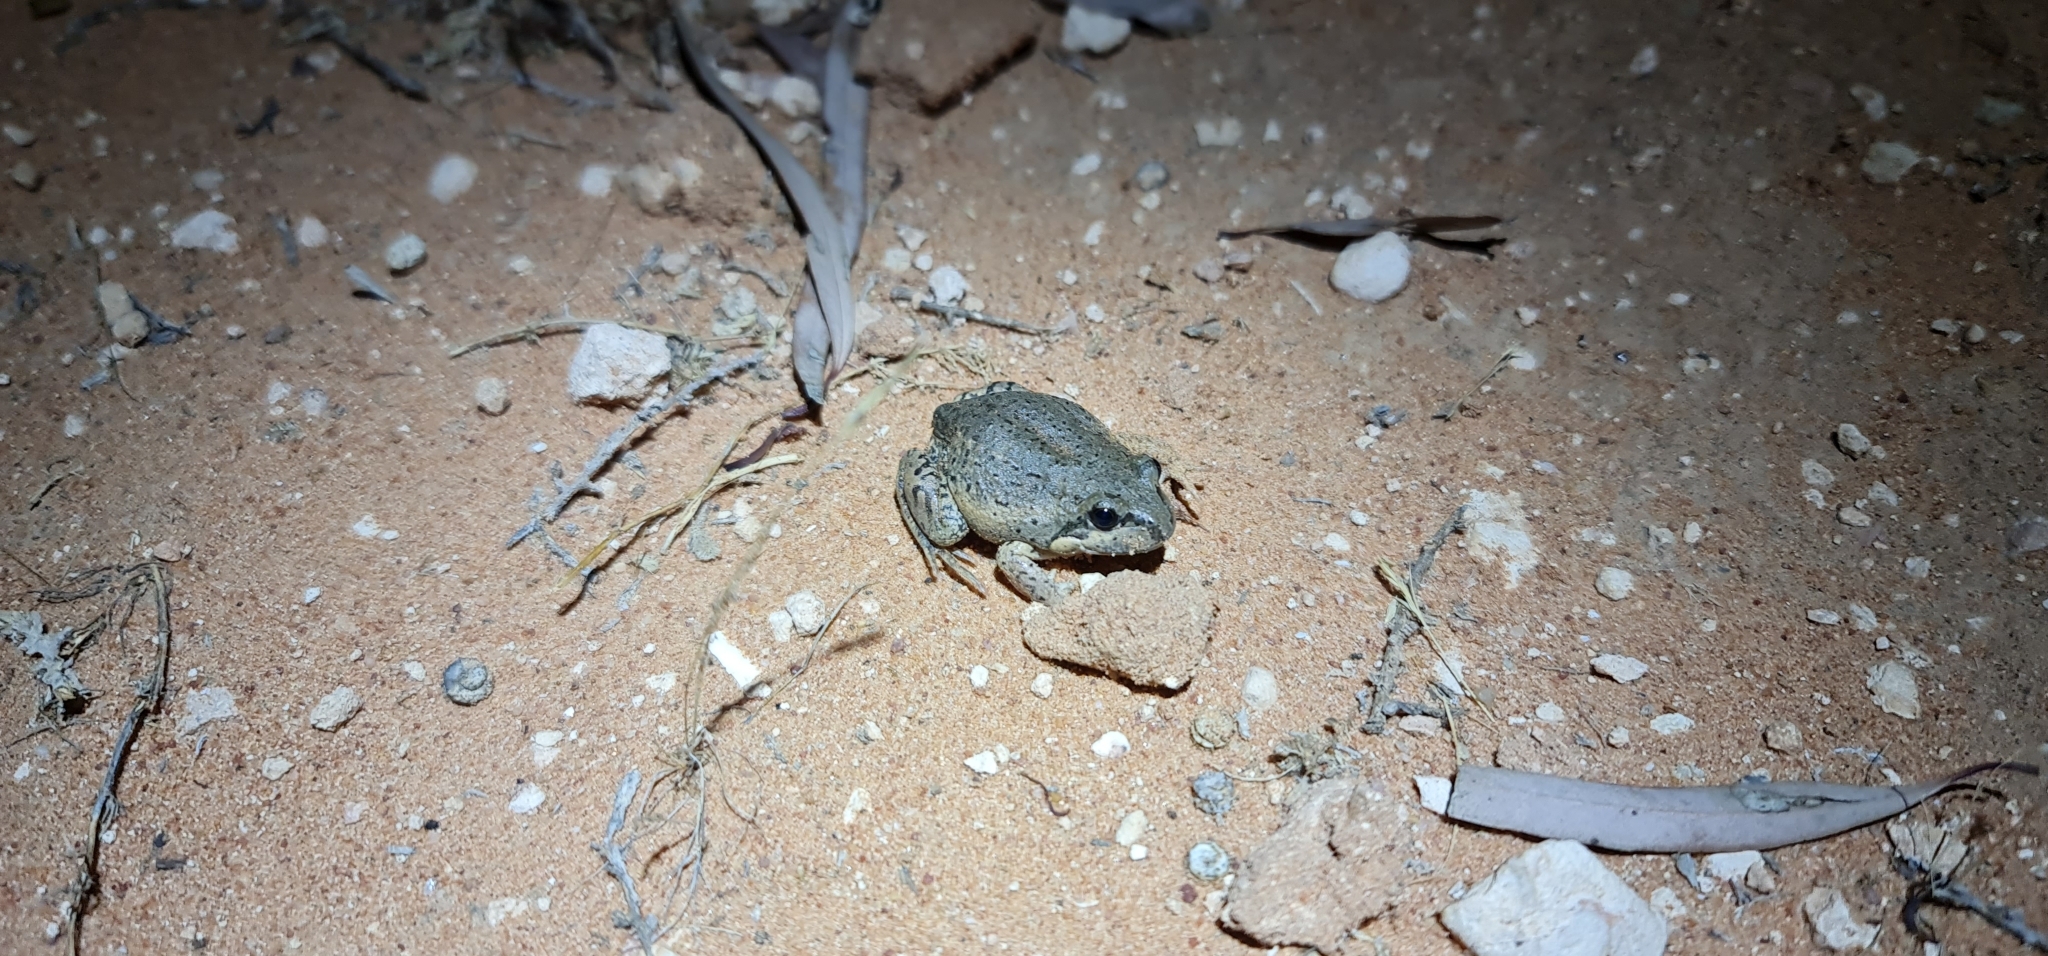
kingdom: Animalia
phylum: Chordata
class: Amphibia
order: Anura
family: Limnodynastidae
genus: Limnodynastes
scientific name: Limnodynastes dumerilii
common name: Banjo frog
